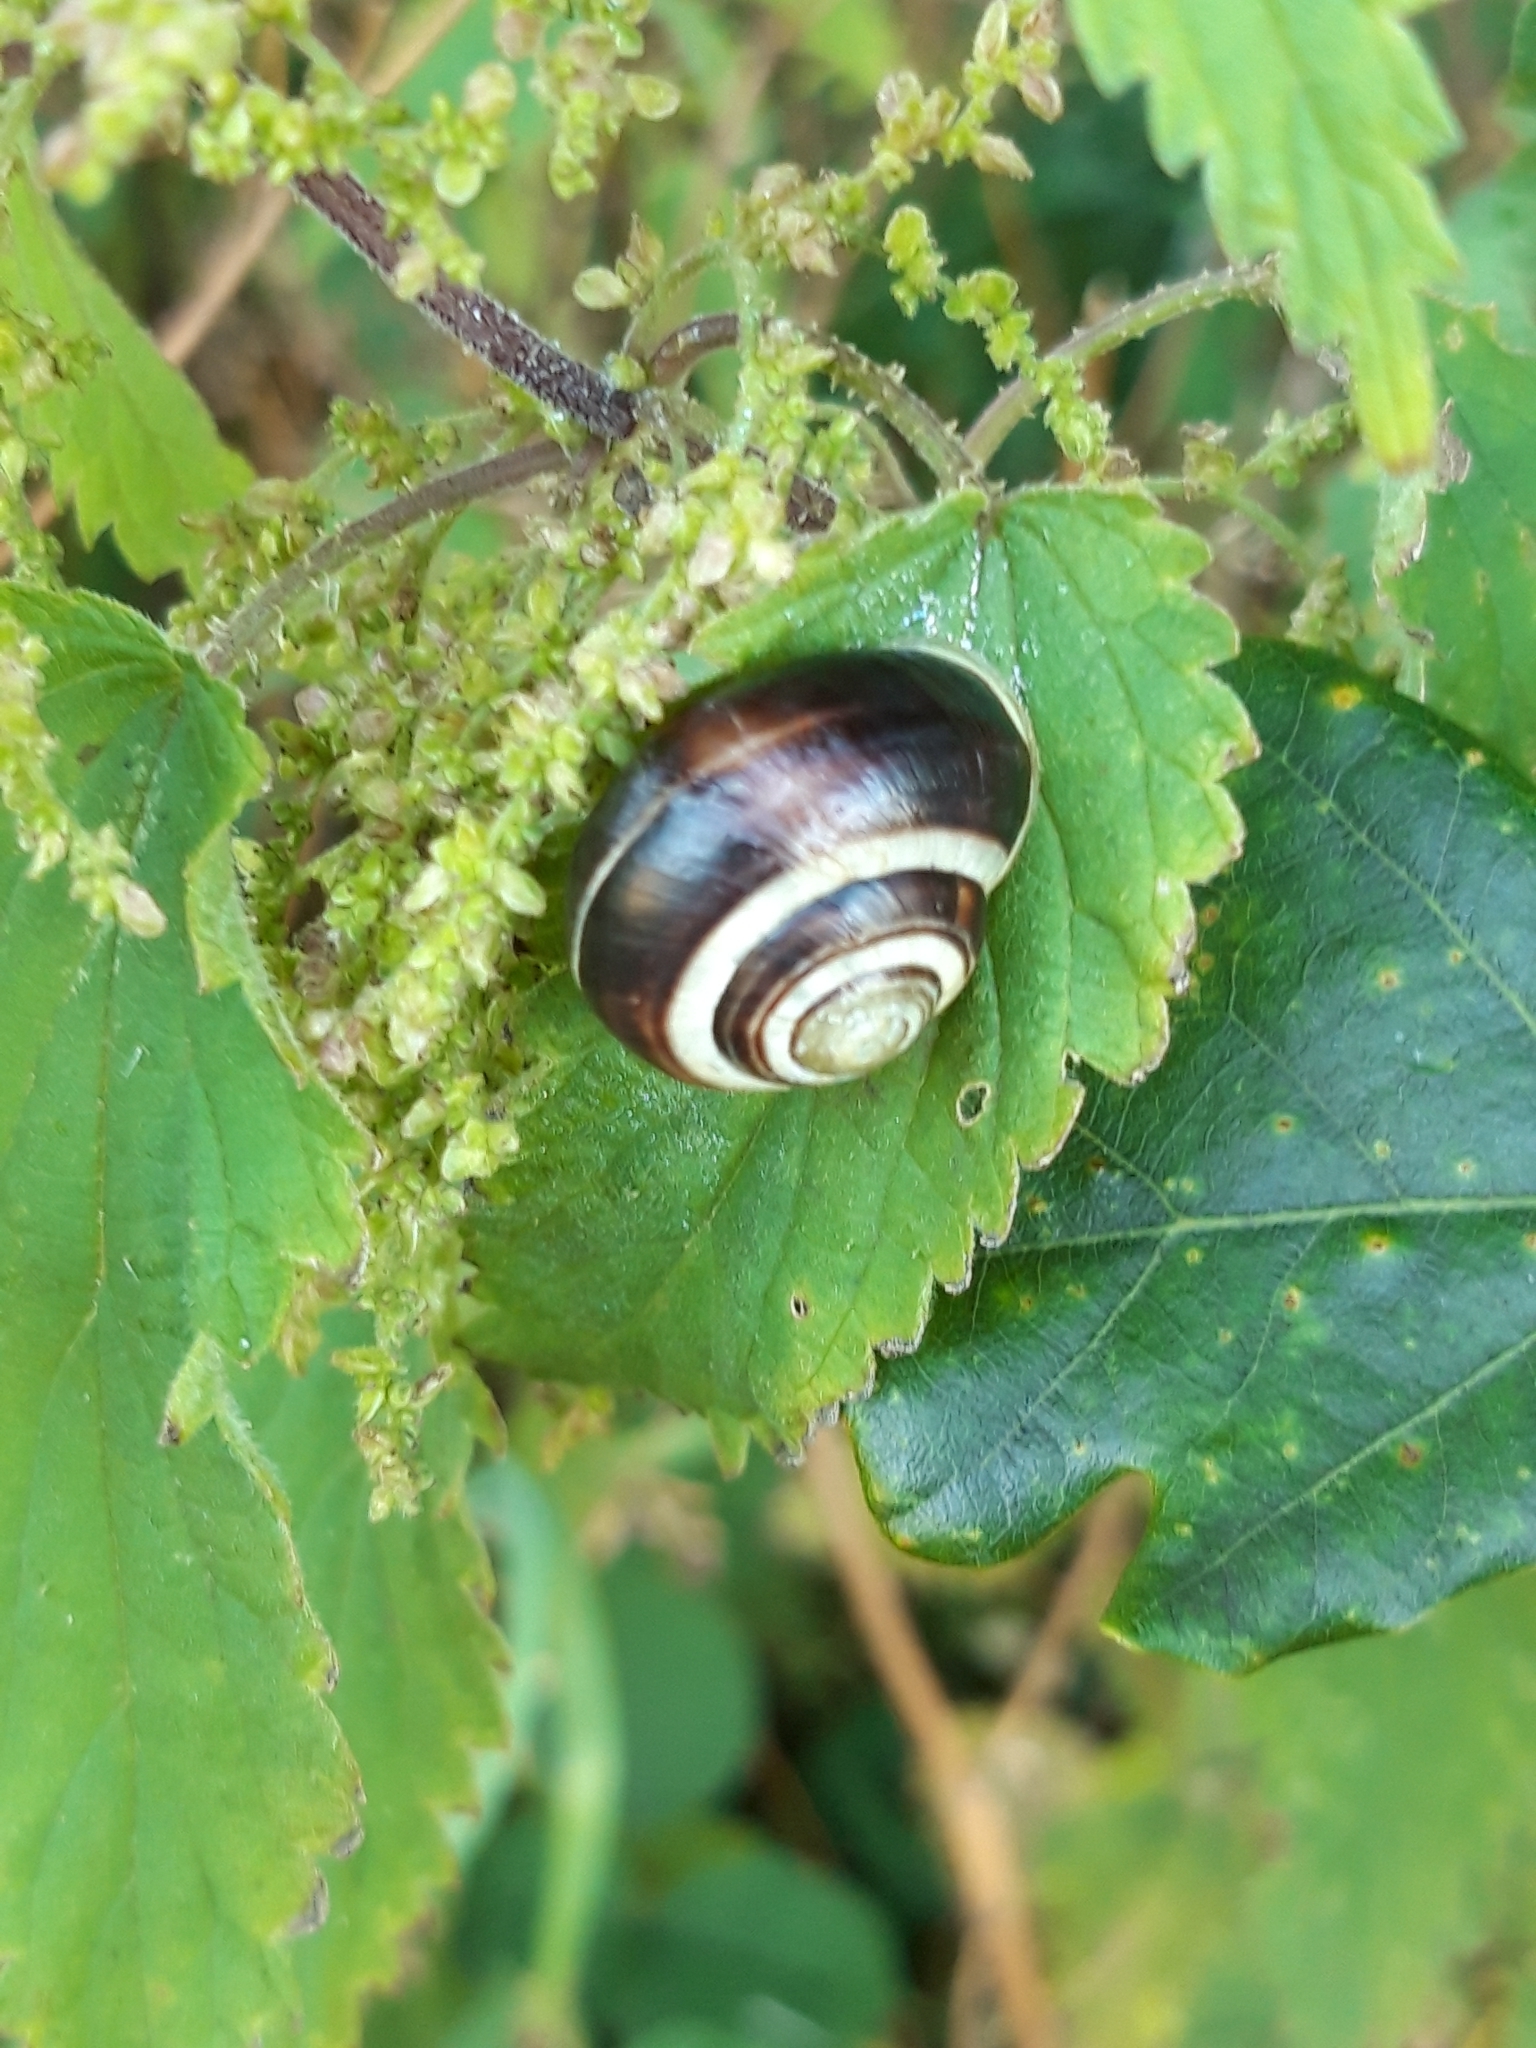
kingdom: Animalia
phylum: Mollusca
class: Gastropoda
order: Stylommatophora
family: Helicidae
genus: Cepaea
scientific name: Cepaea hortensis
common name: White-lip gardensnail
